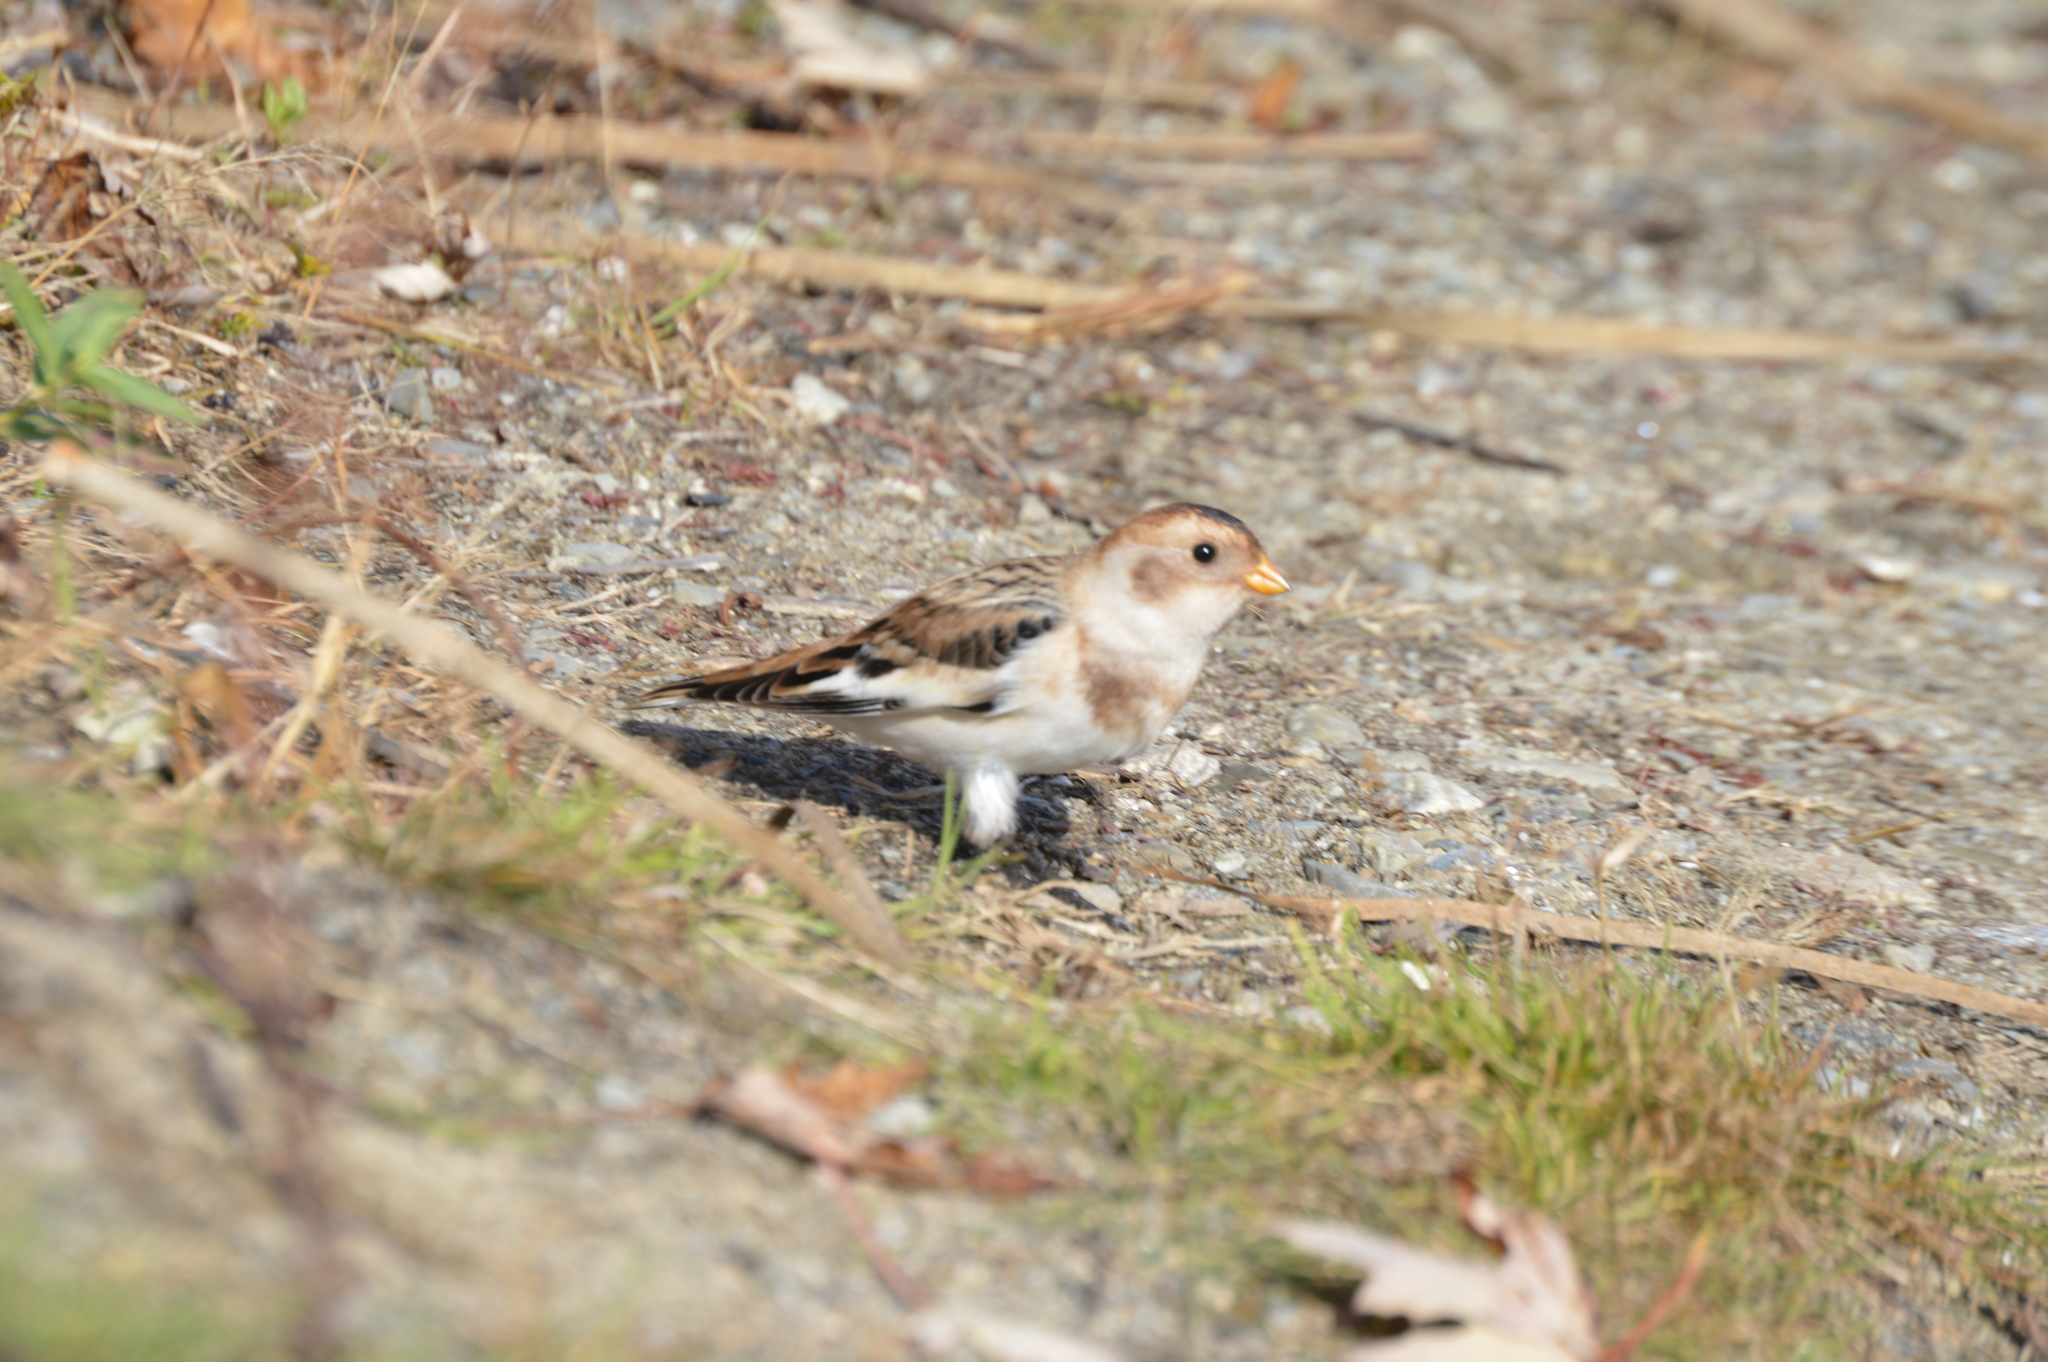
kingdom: Animalia
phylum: Chordata
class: Aves
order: Passeriformes
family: Calcariidae
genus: Plectrophenax
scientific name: Plectrophenax nivalis
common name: Snow bunting
